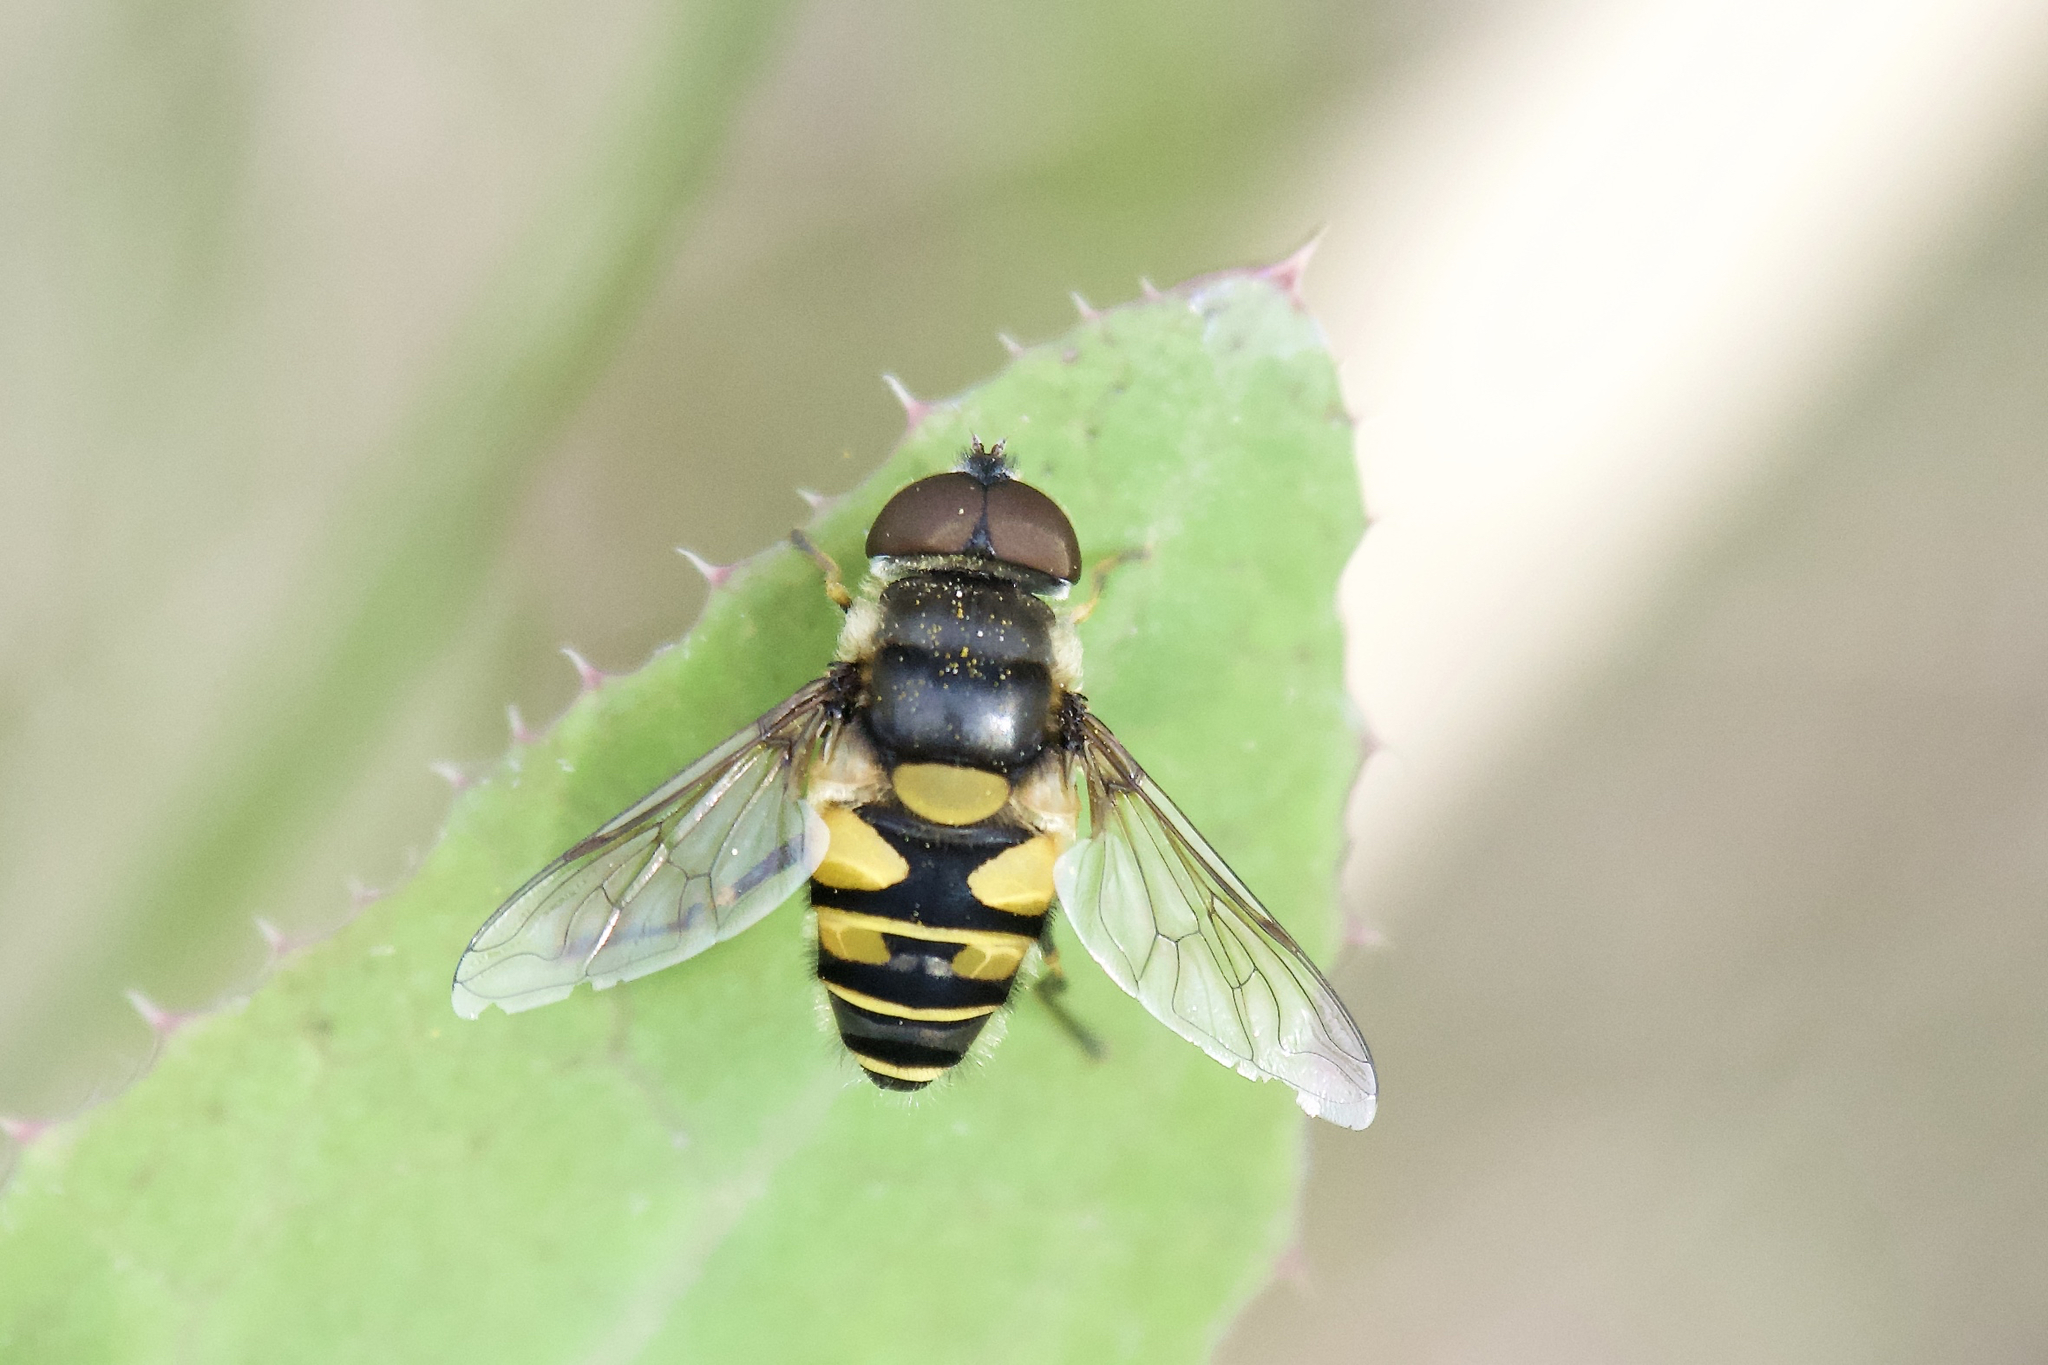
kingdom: Animalia
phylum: Arthropoda
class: Insecta
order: Diptera
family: Syrphidae
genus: Eristalis
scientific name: Eristalis transversa
